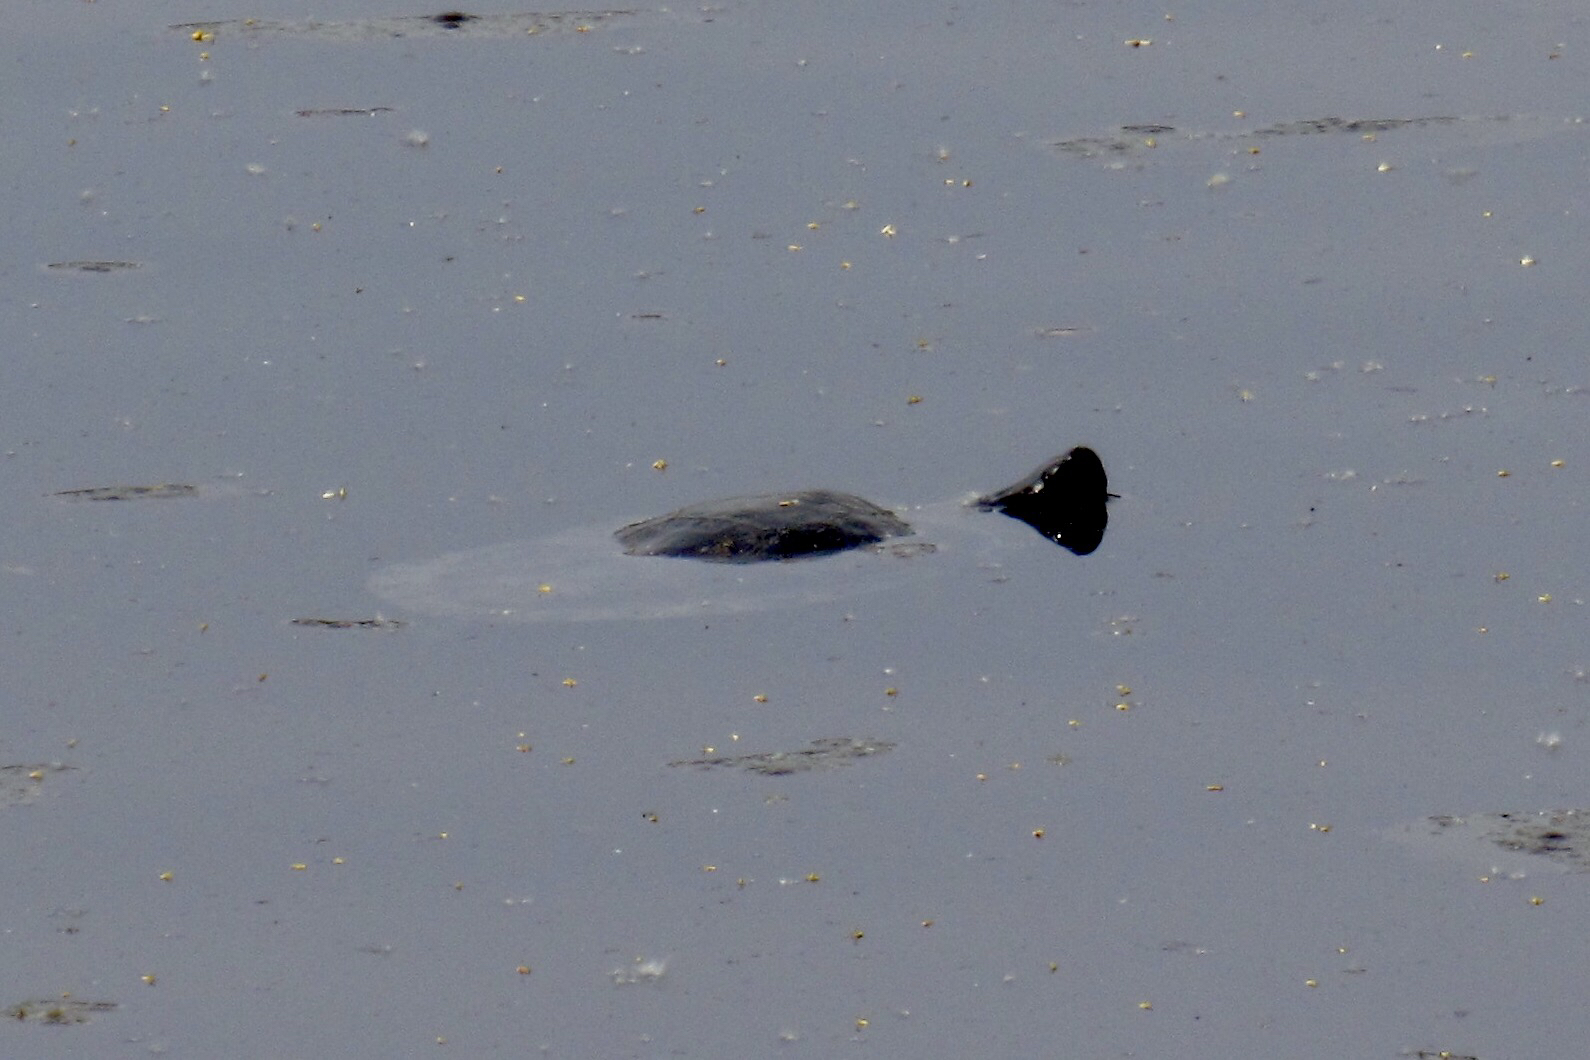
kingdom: Animalia
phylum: Chordata
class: Testudines
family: Emydidae
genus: Trachemys
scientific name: Trachemys scripta
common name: Slider
